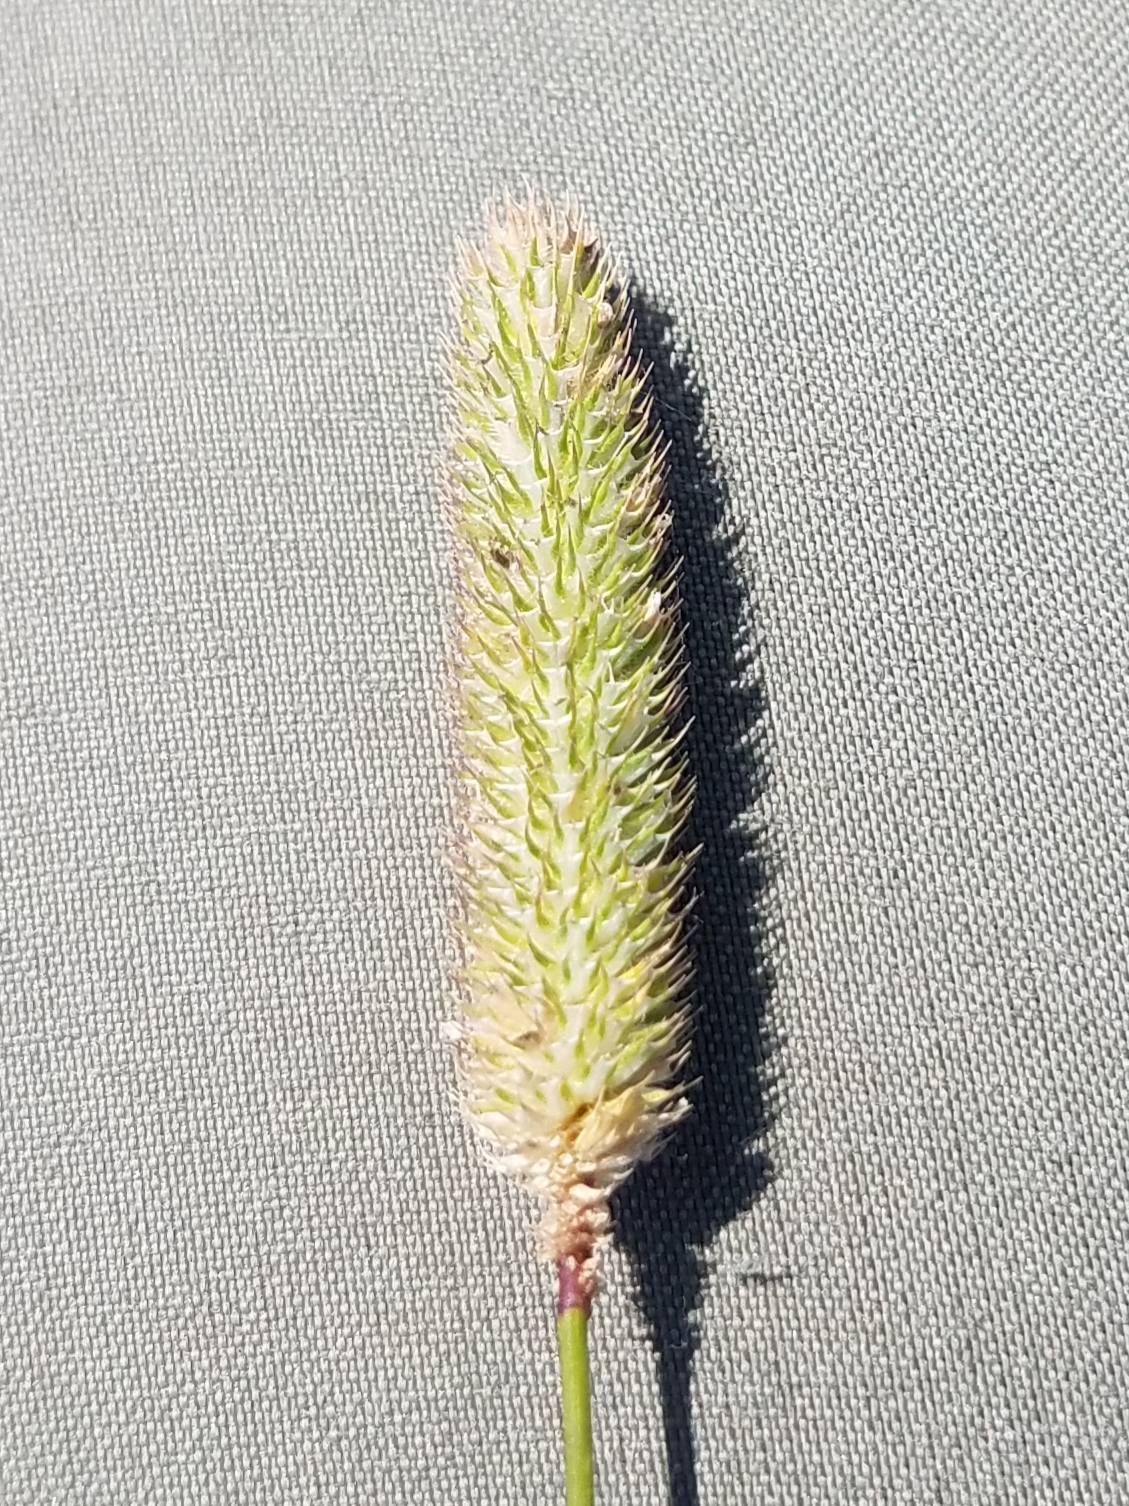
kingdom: Plantae
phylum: Tracheophyta
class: Liliopsida
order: Poales
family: Poaceae
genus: Phleum
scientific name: Phleum pratense
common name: Timothy grass
